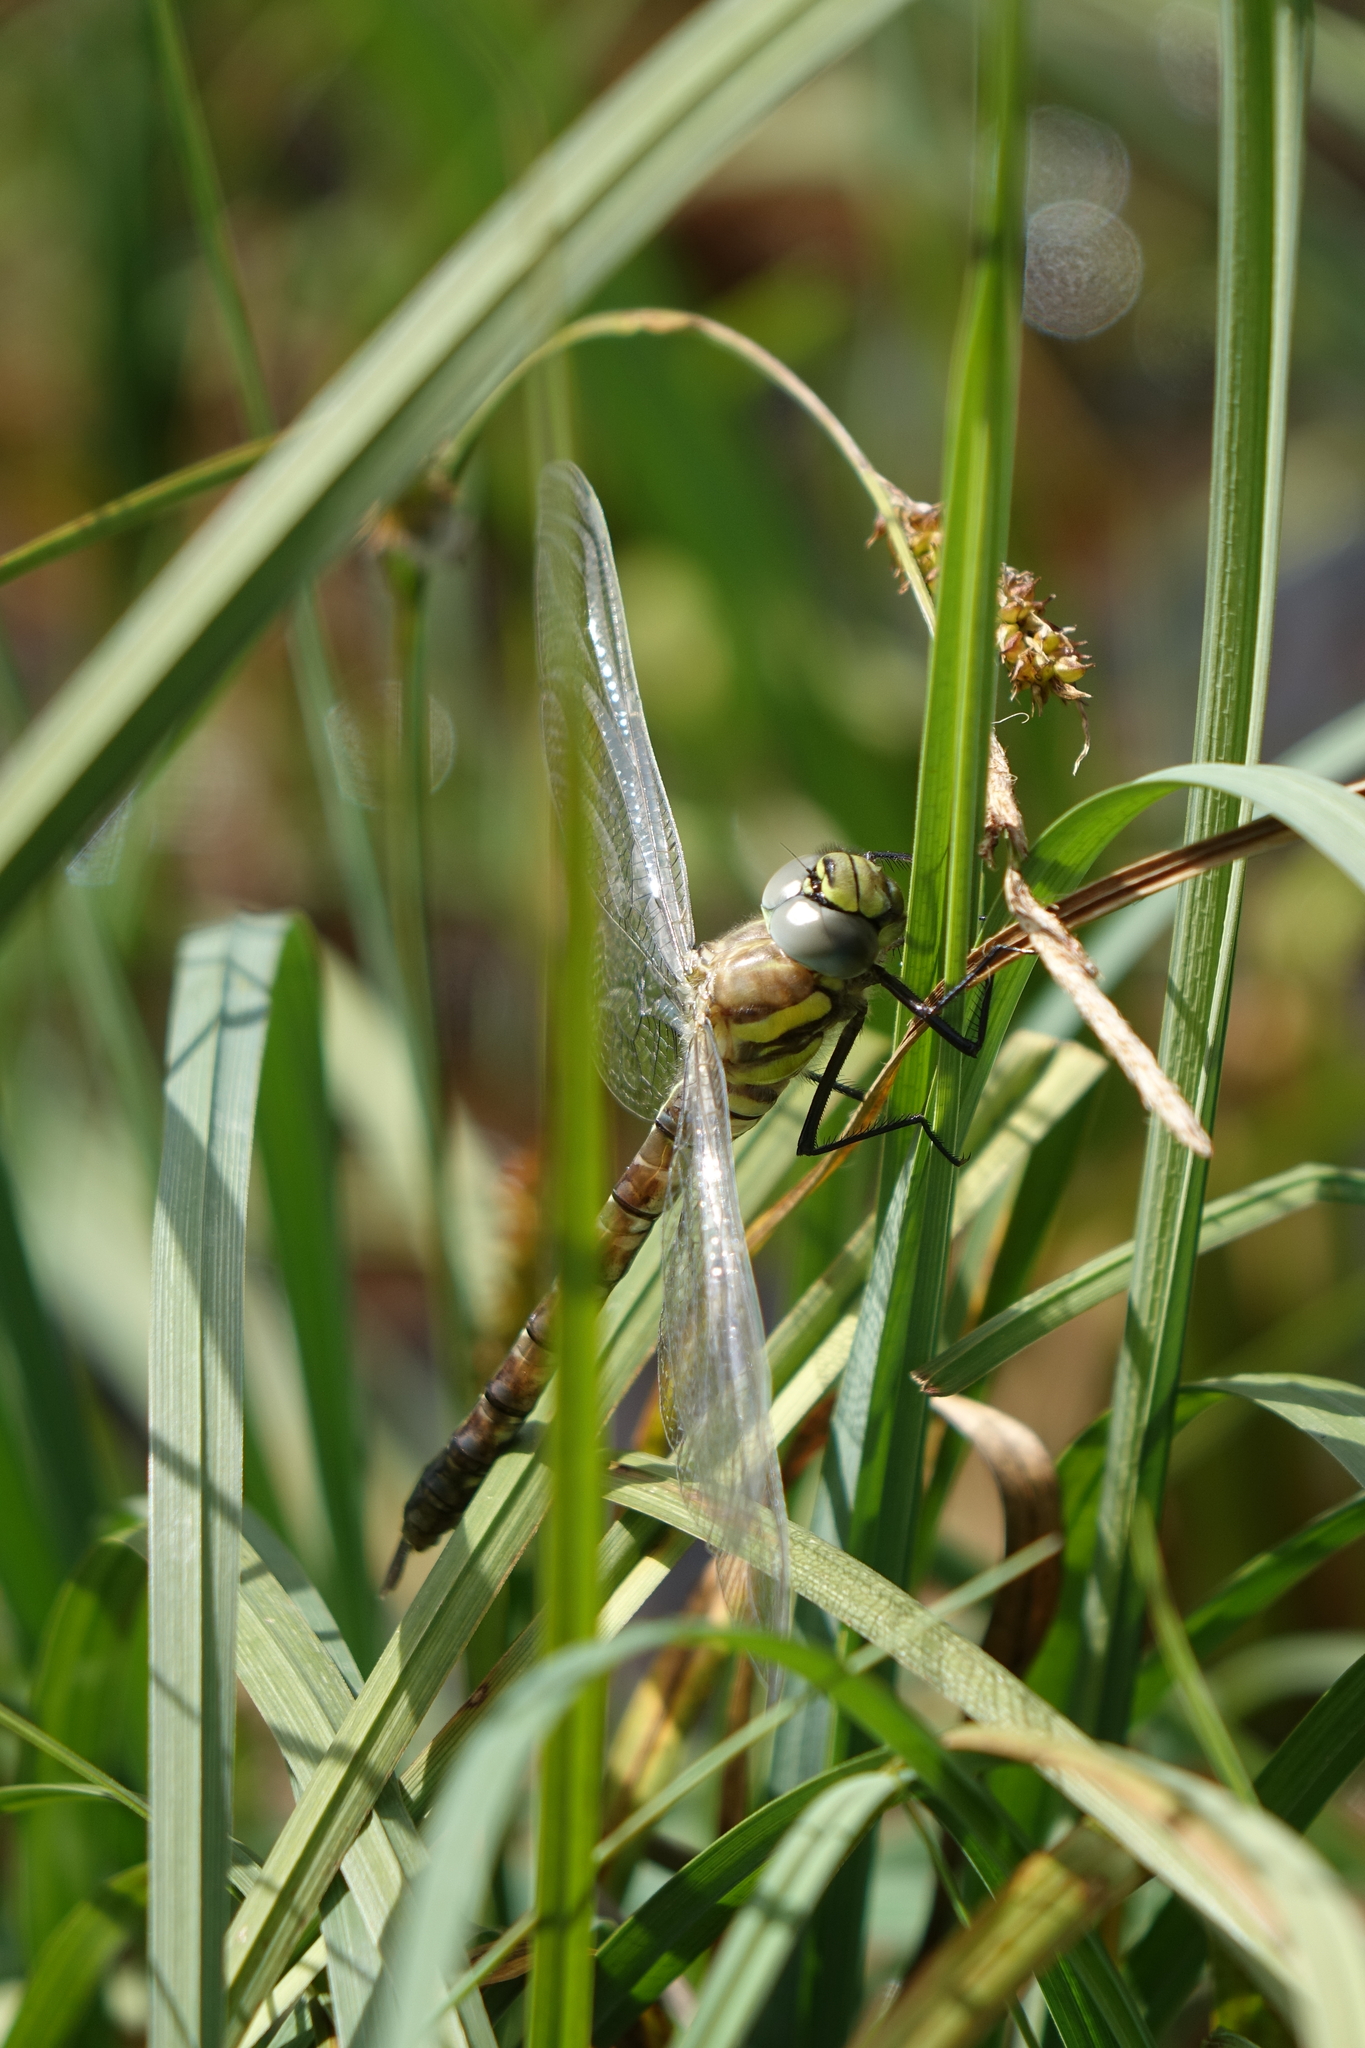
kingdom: Animalia
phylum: Arthropoda
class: Insecta
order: Odonata
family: Aeshnidae
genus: Aeshna
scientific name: Aeshna juncea
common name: Moorland hawker
